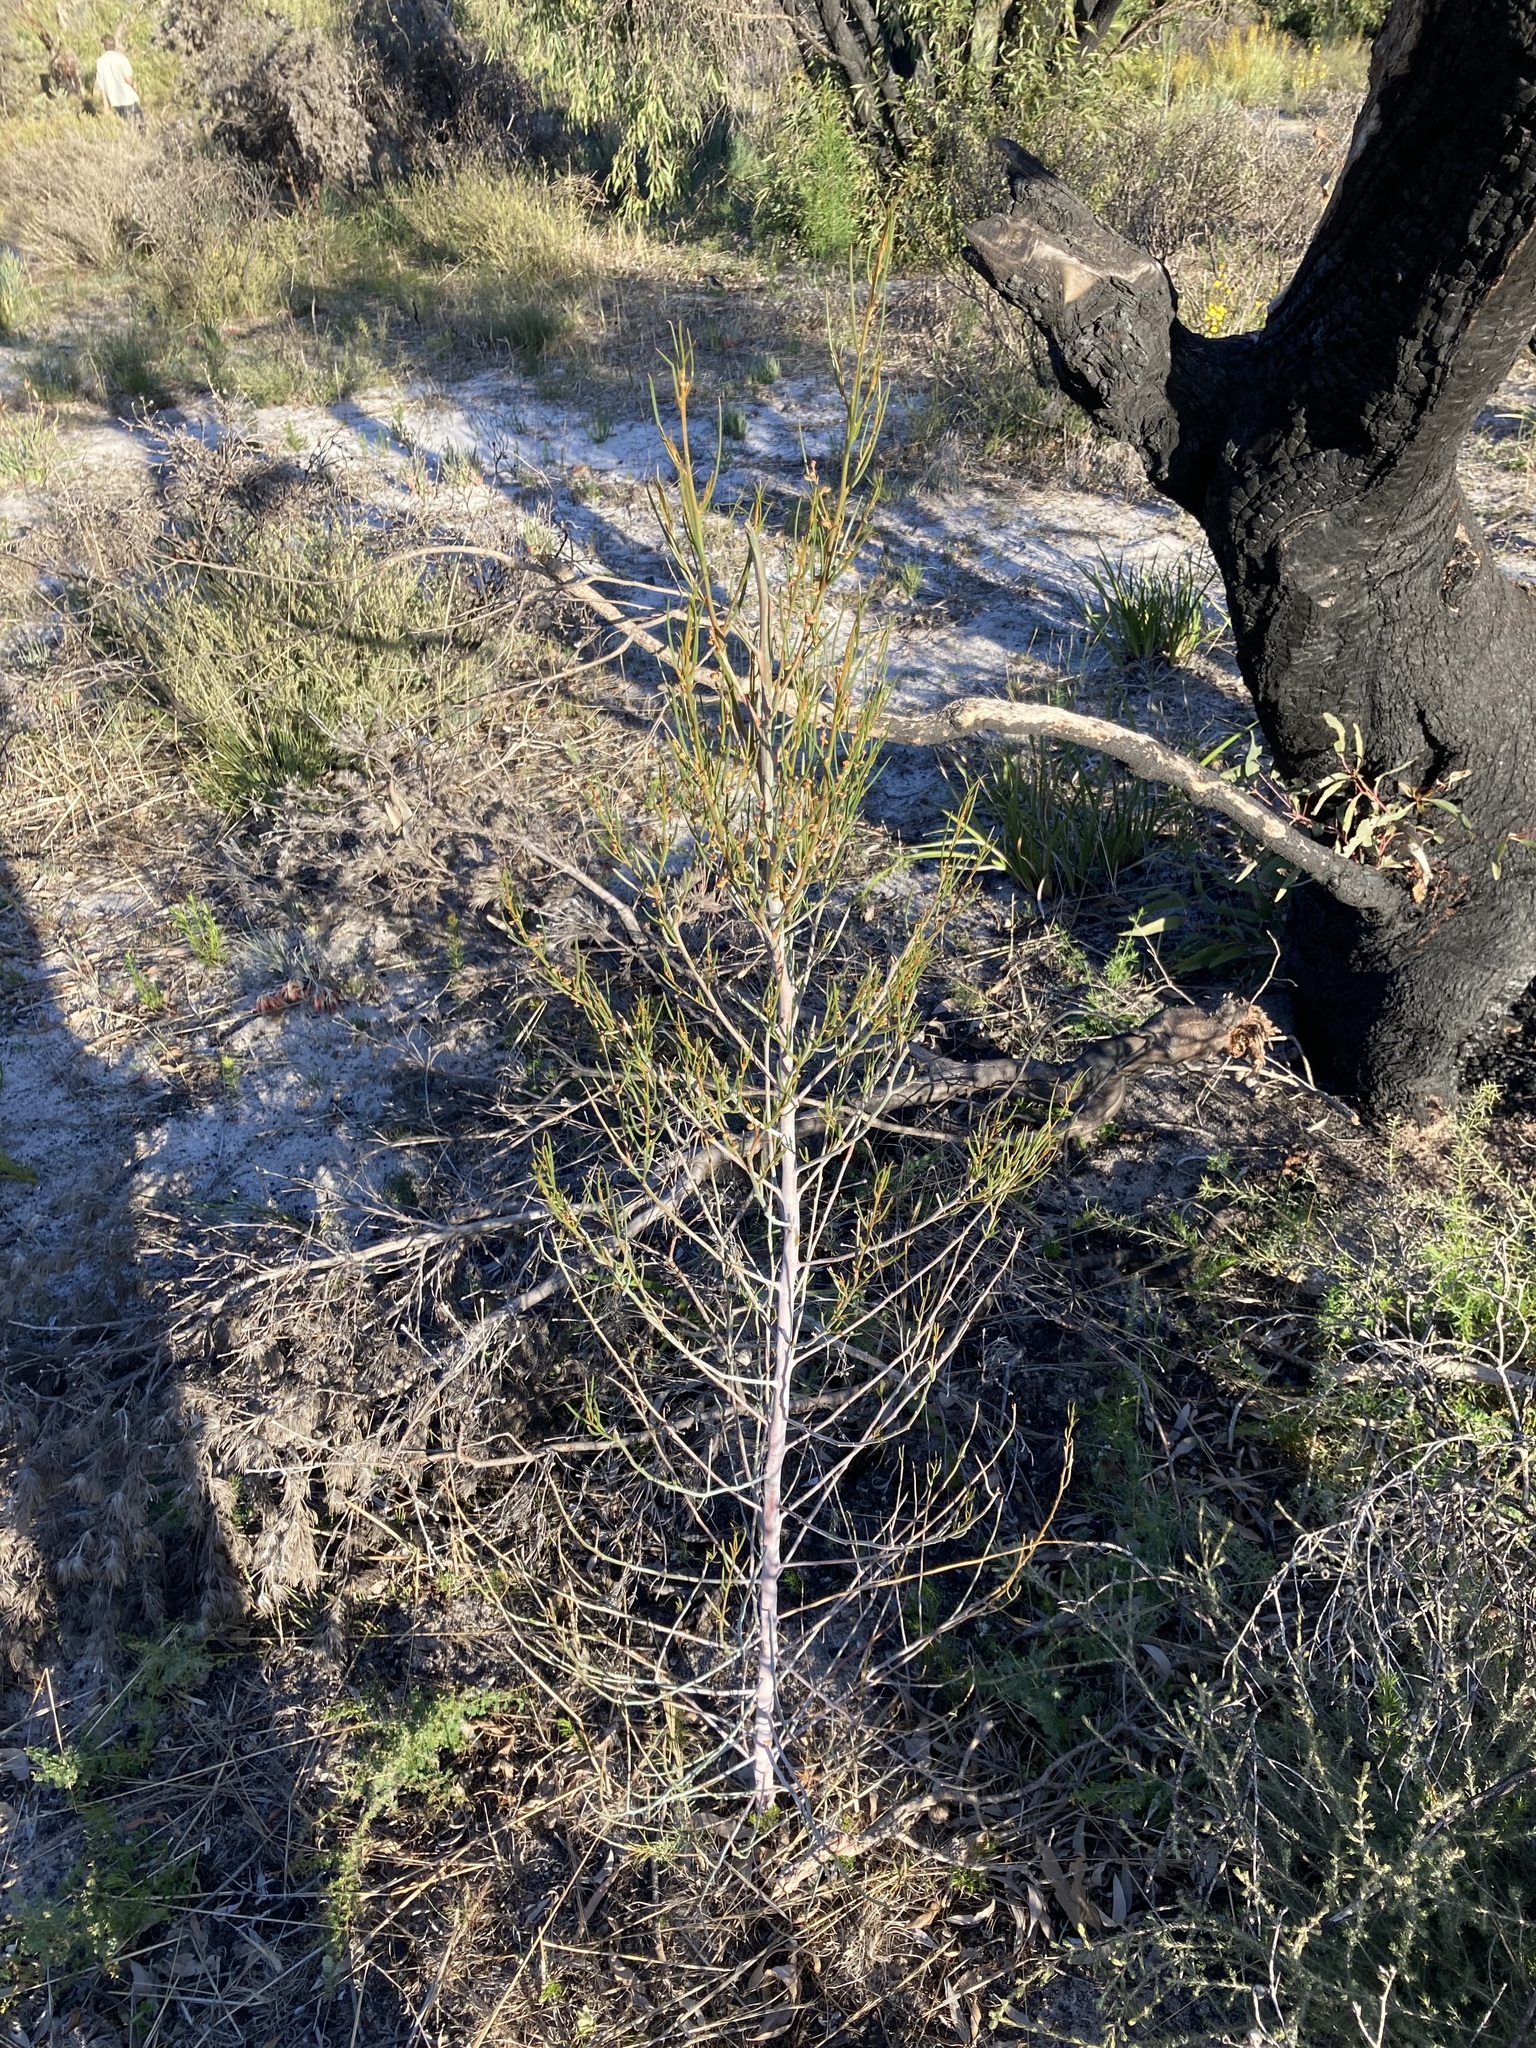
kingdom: Plantae
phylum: Tracheophyta
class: Magnoliopsida
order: Brassicales
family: Gyrostemonaceae
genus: Gyrostemon
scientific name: Gyrostemon racemiger
